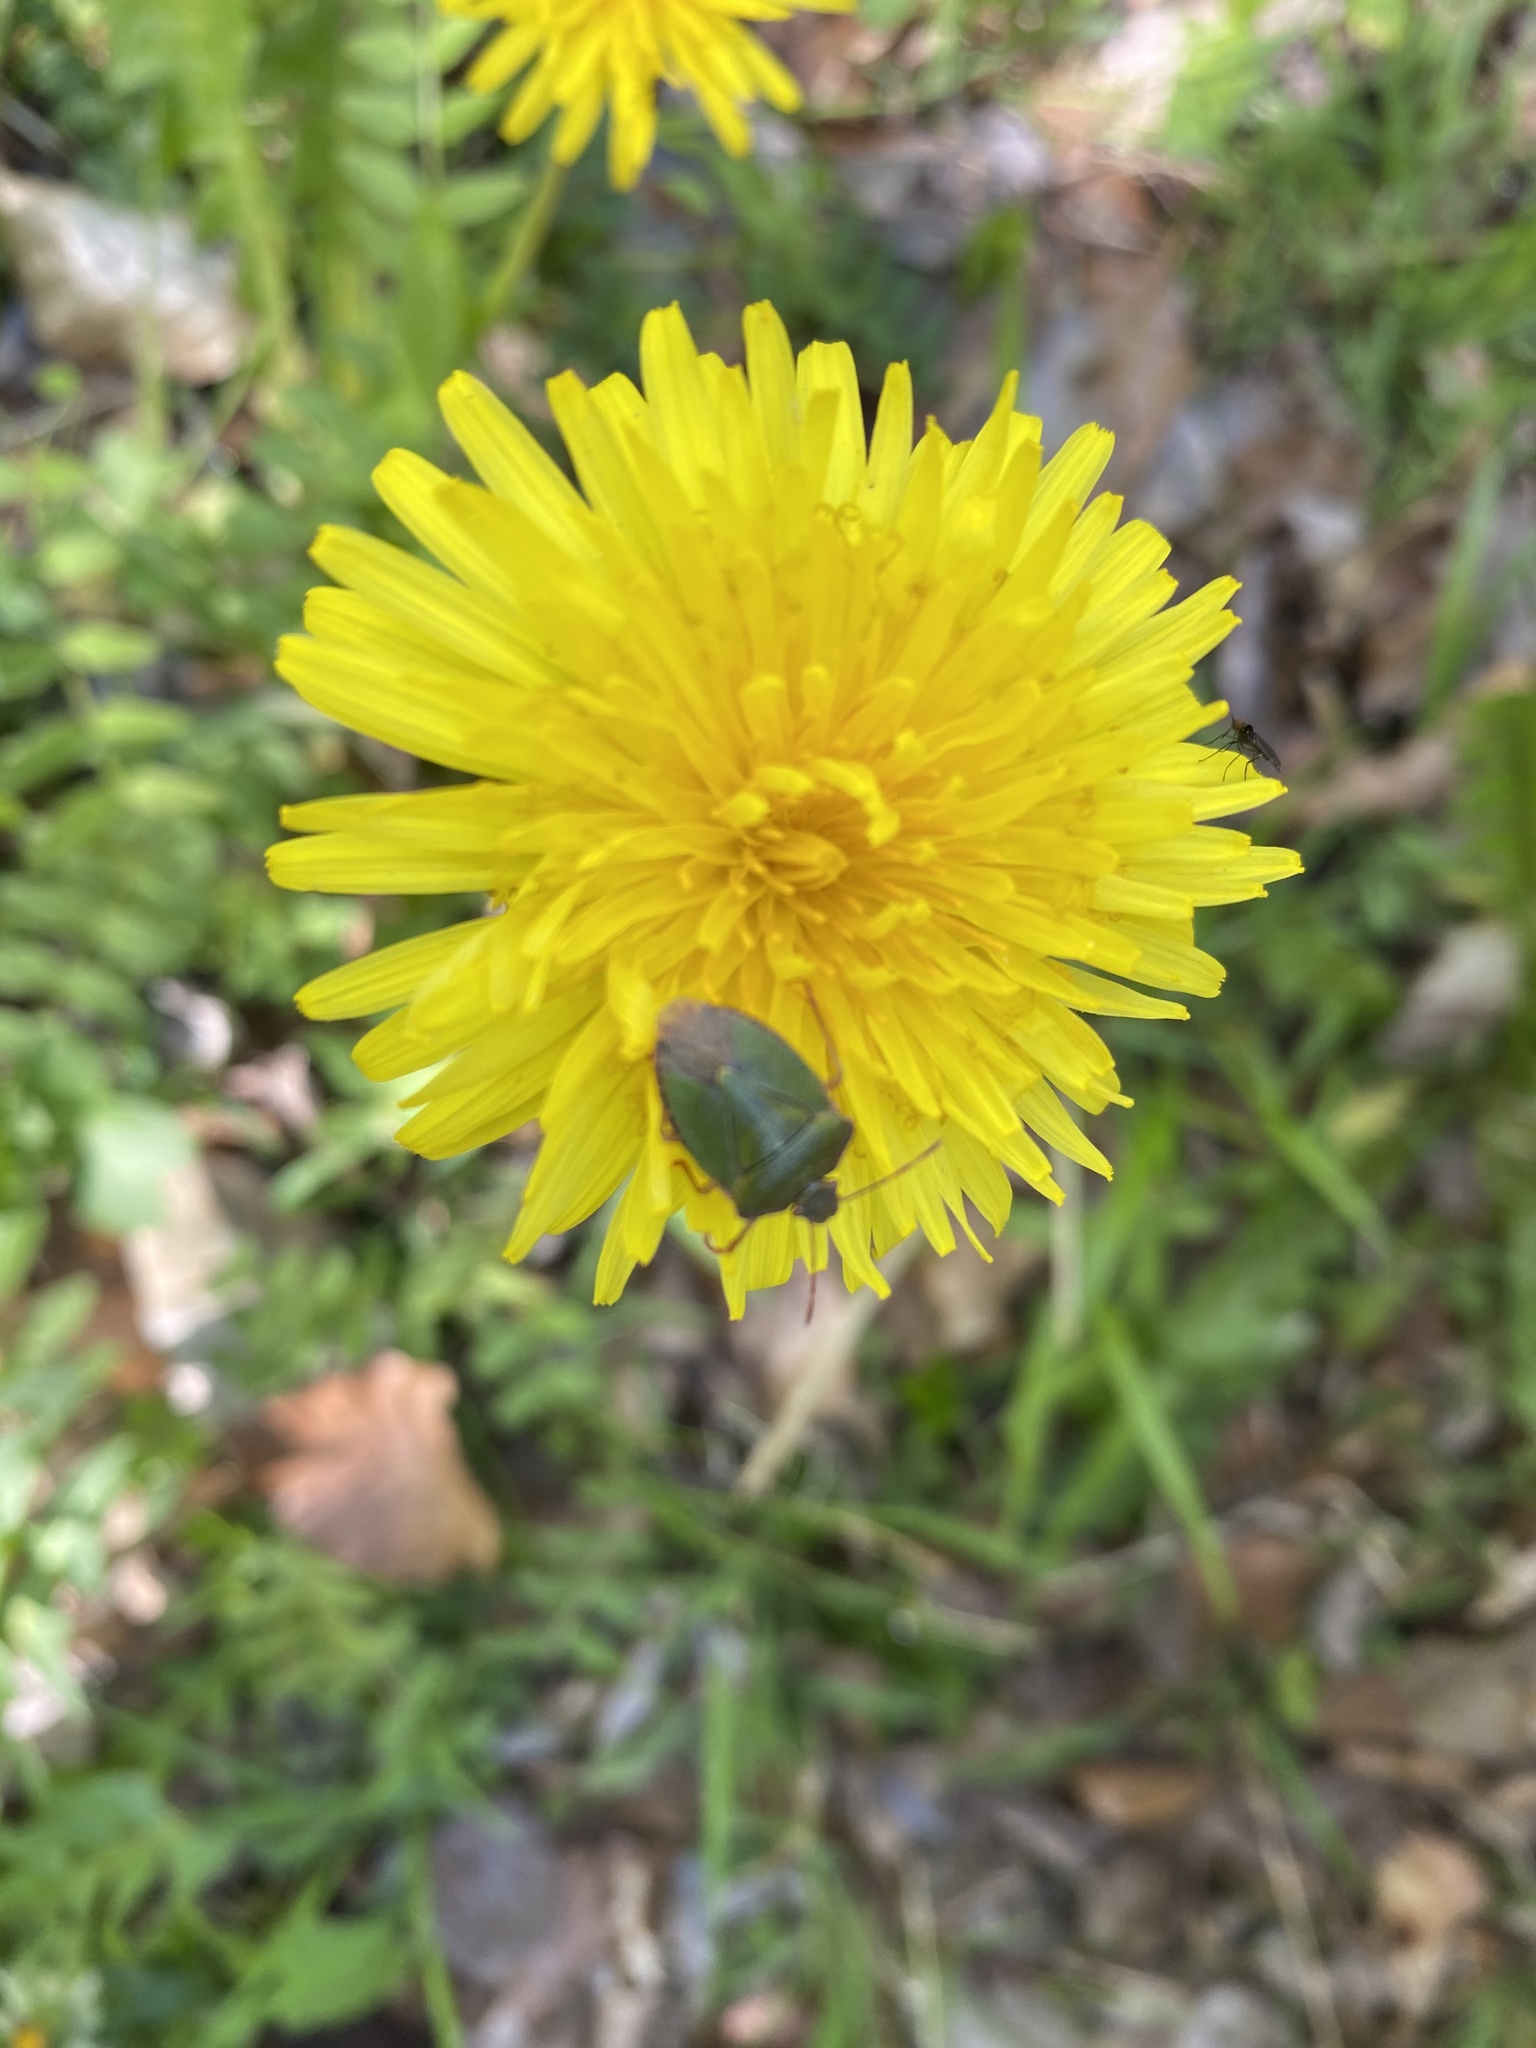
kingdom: Animalia
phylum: Arthropoda
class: Insecta
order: Hemiptera
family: Pentatomidae
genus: Palomena
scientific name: Palomena prasina
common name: Green shieldbug
